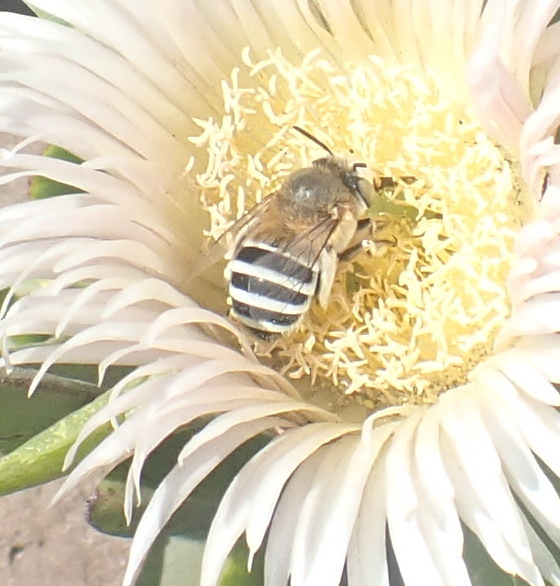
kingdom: Animalia
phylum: Arthropoda
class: Insecta
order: Hymenoptera
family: Apidae
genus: Amegilla
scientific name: Amegilla obscuriceps
